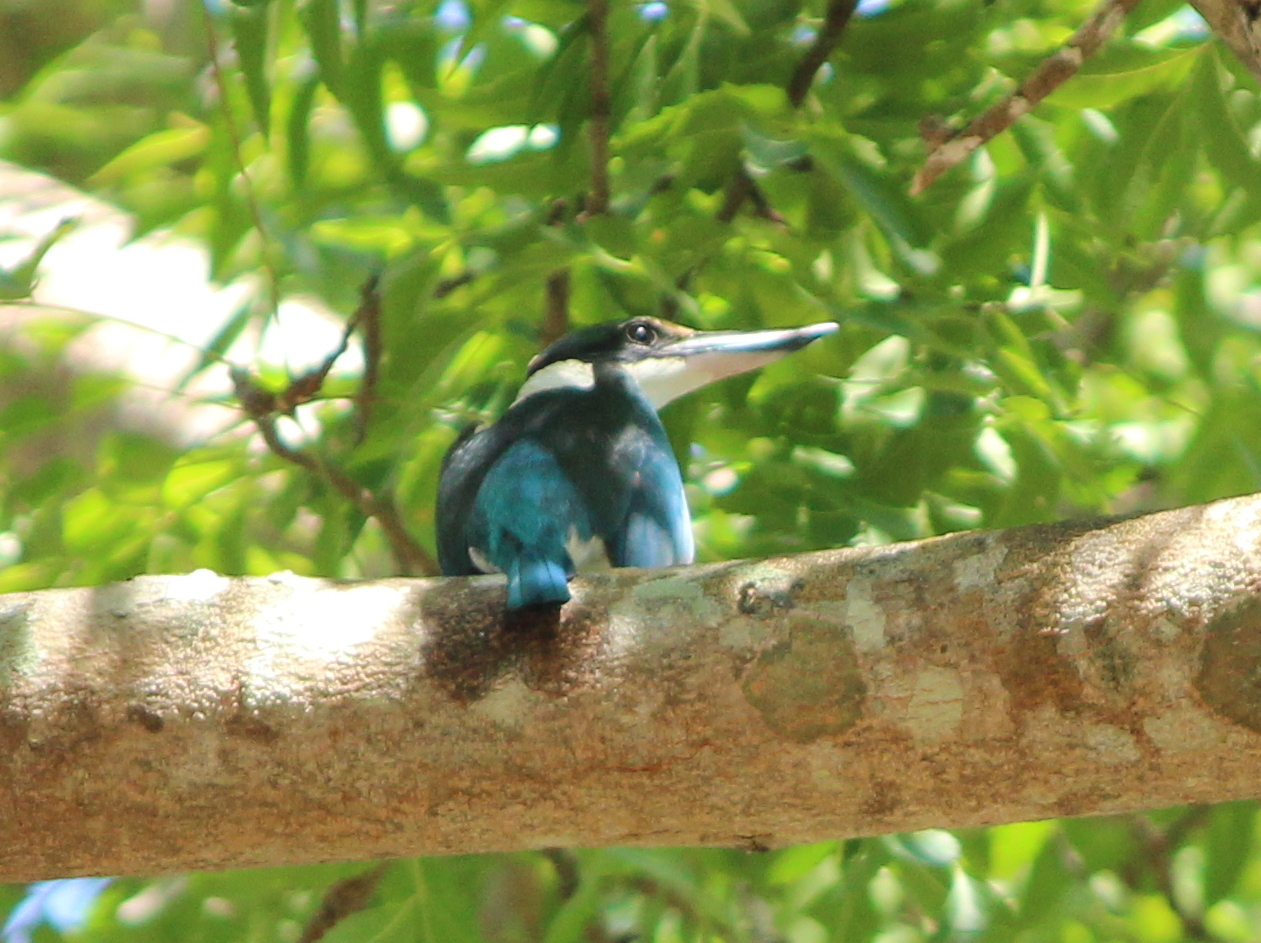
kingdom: Animalia
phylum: Chordata
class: Aves
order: Coraciiformes
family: Alcedinidae
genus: Todiramphus
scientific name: Todiramphus chloris
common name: Collared kingfisher
